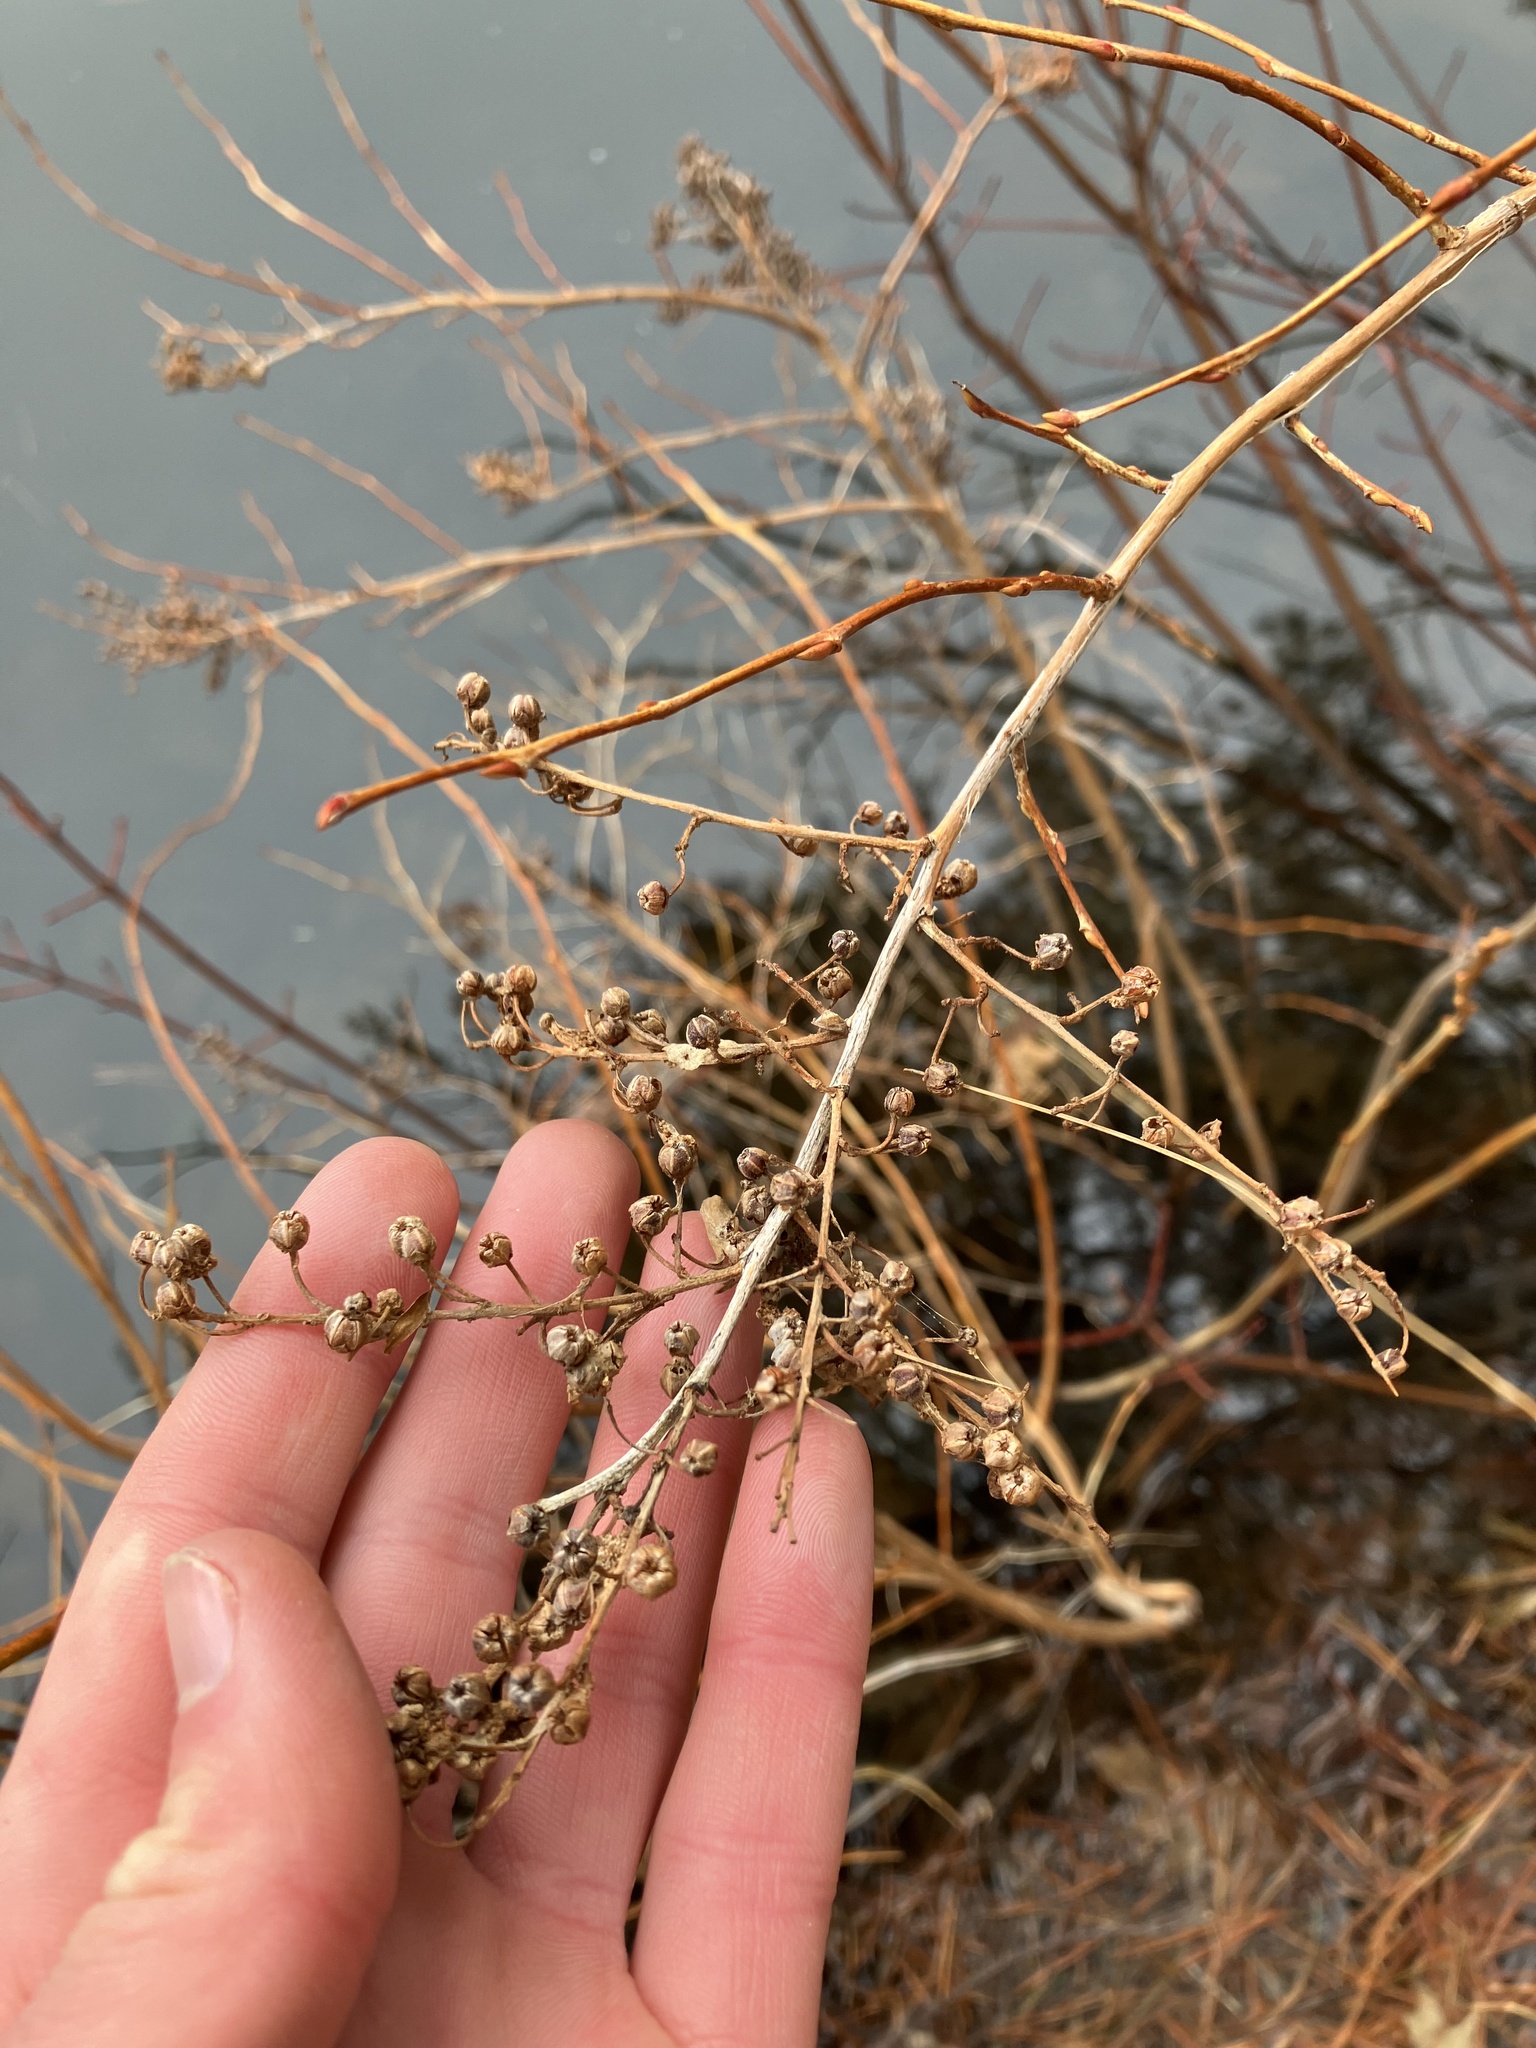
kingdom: Plantae
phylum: Tracheophyta
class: Magnoliopsida
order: Ericales
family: Ericaceae
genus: Lyonia
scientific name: Lyonia ligustrina
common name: Maleberry
